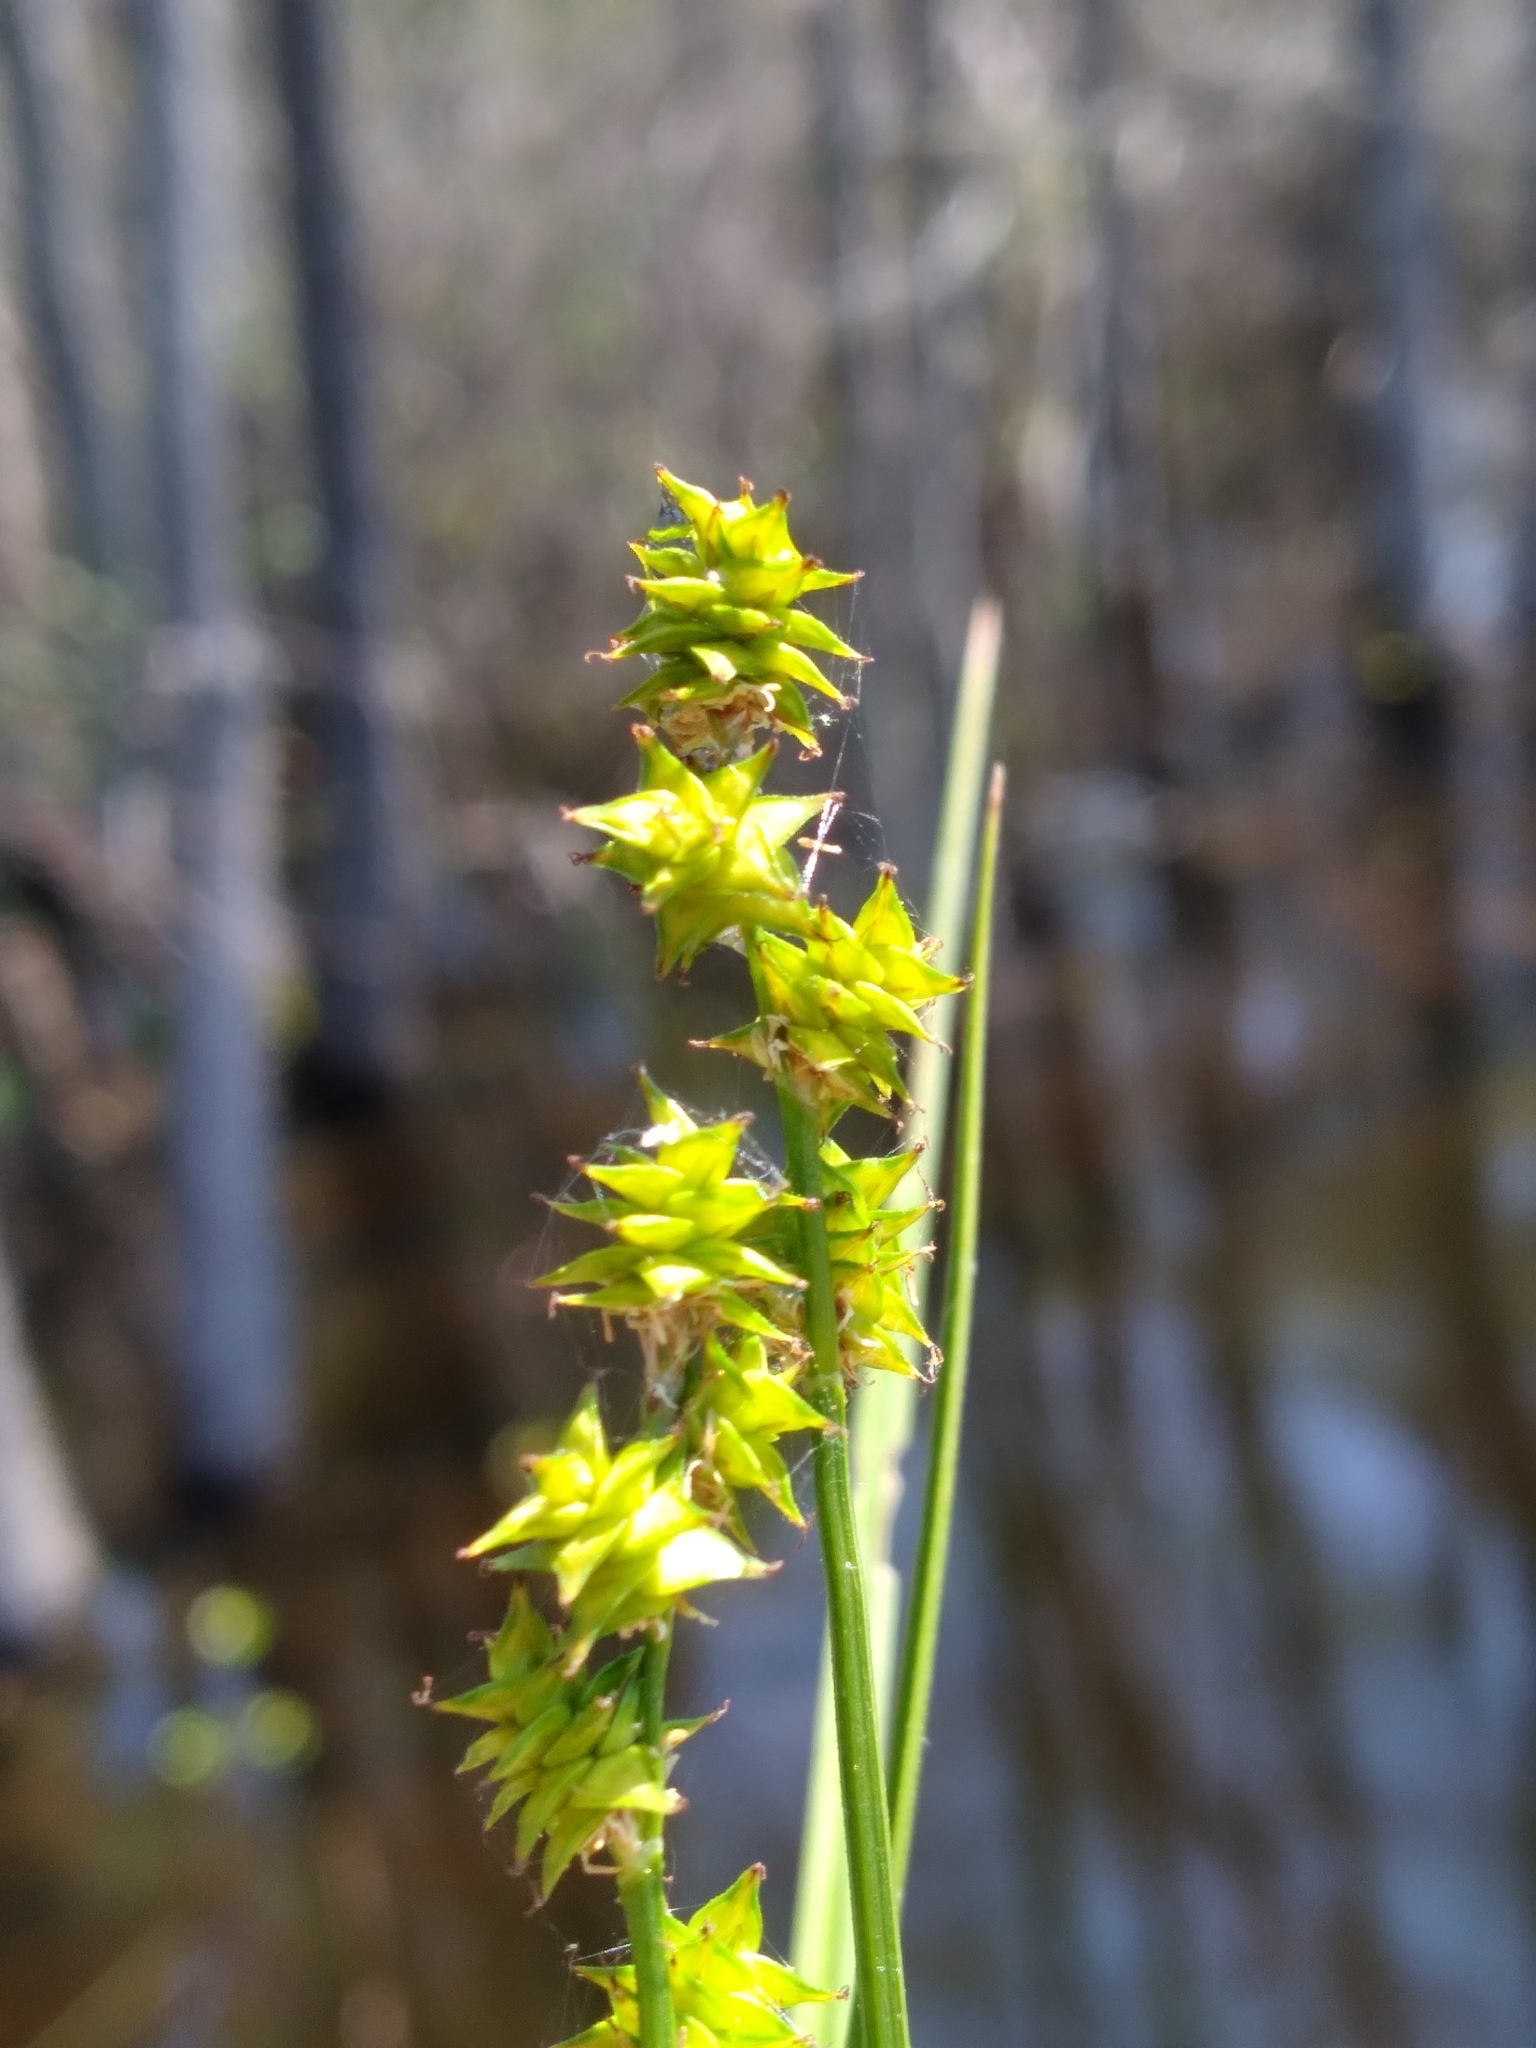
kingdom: Plantae
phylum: Tracheophyta
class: Liliopsida
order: Poales
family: Cyperaceae
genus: Carex
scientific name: Carex atlantica
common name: Atlantic sedge
